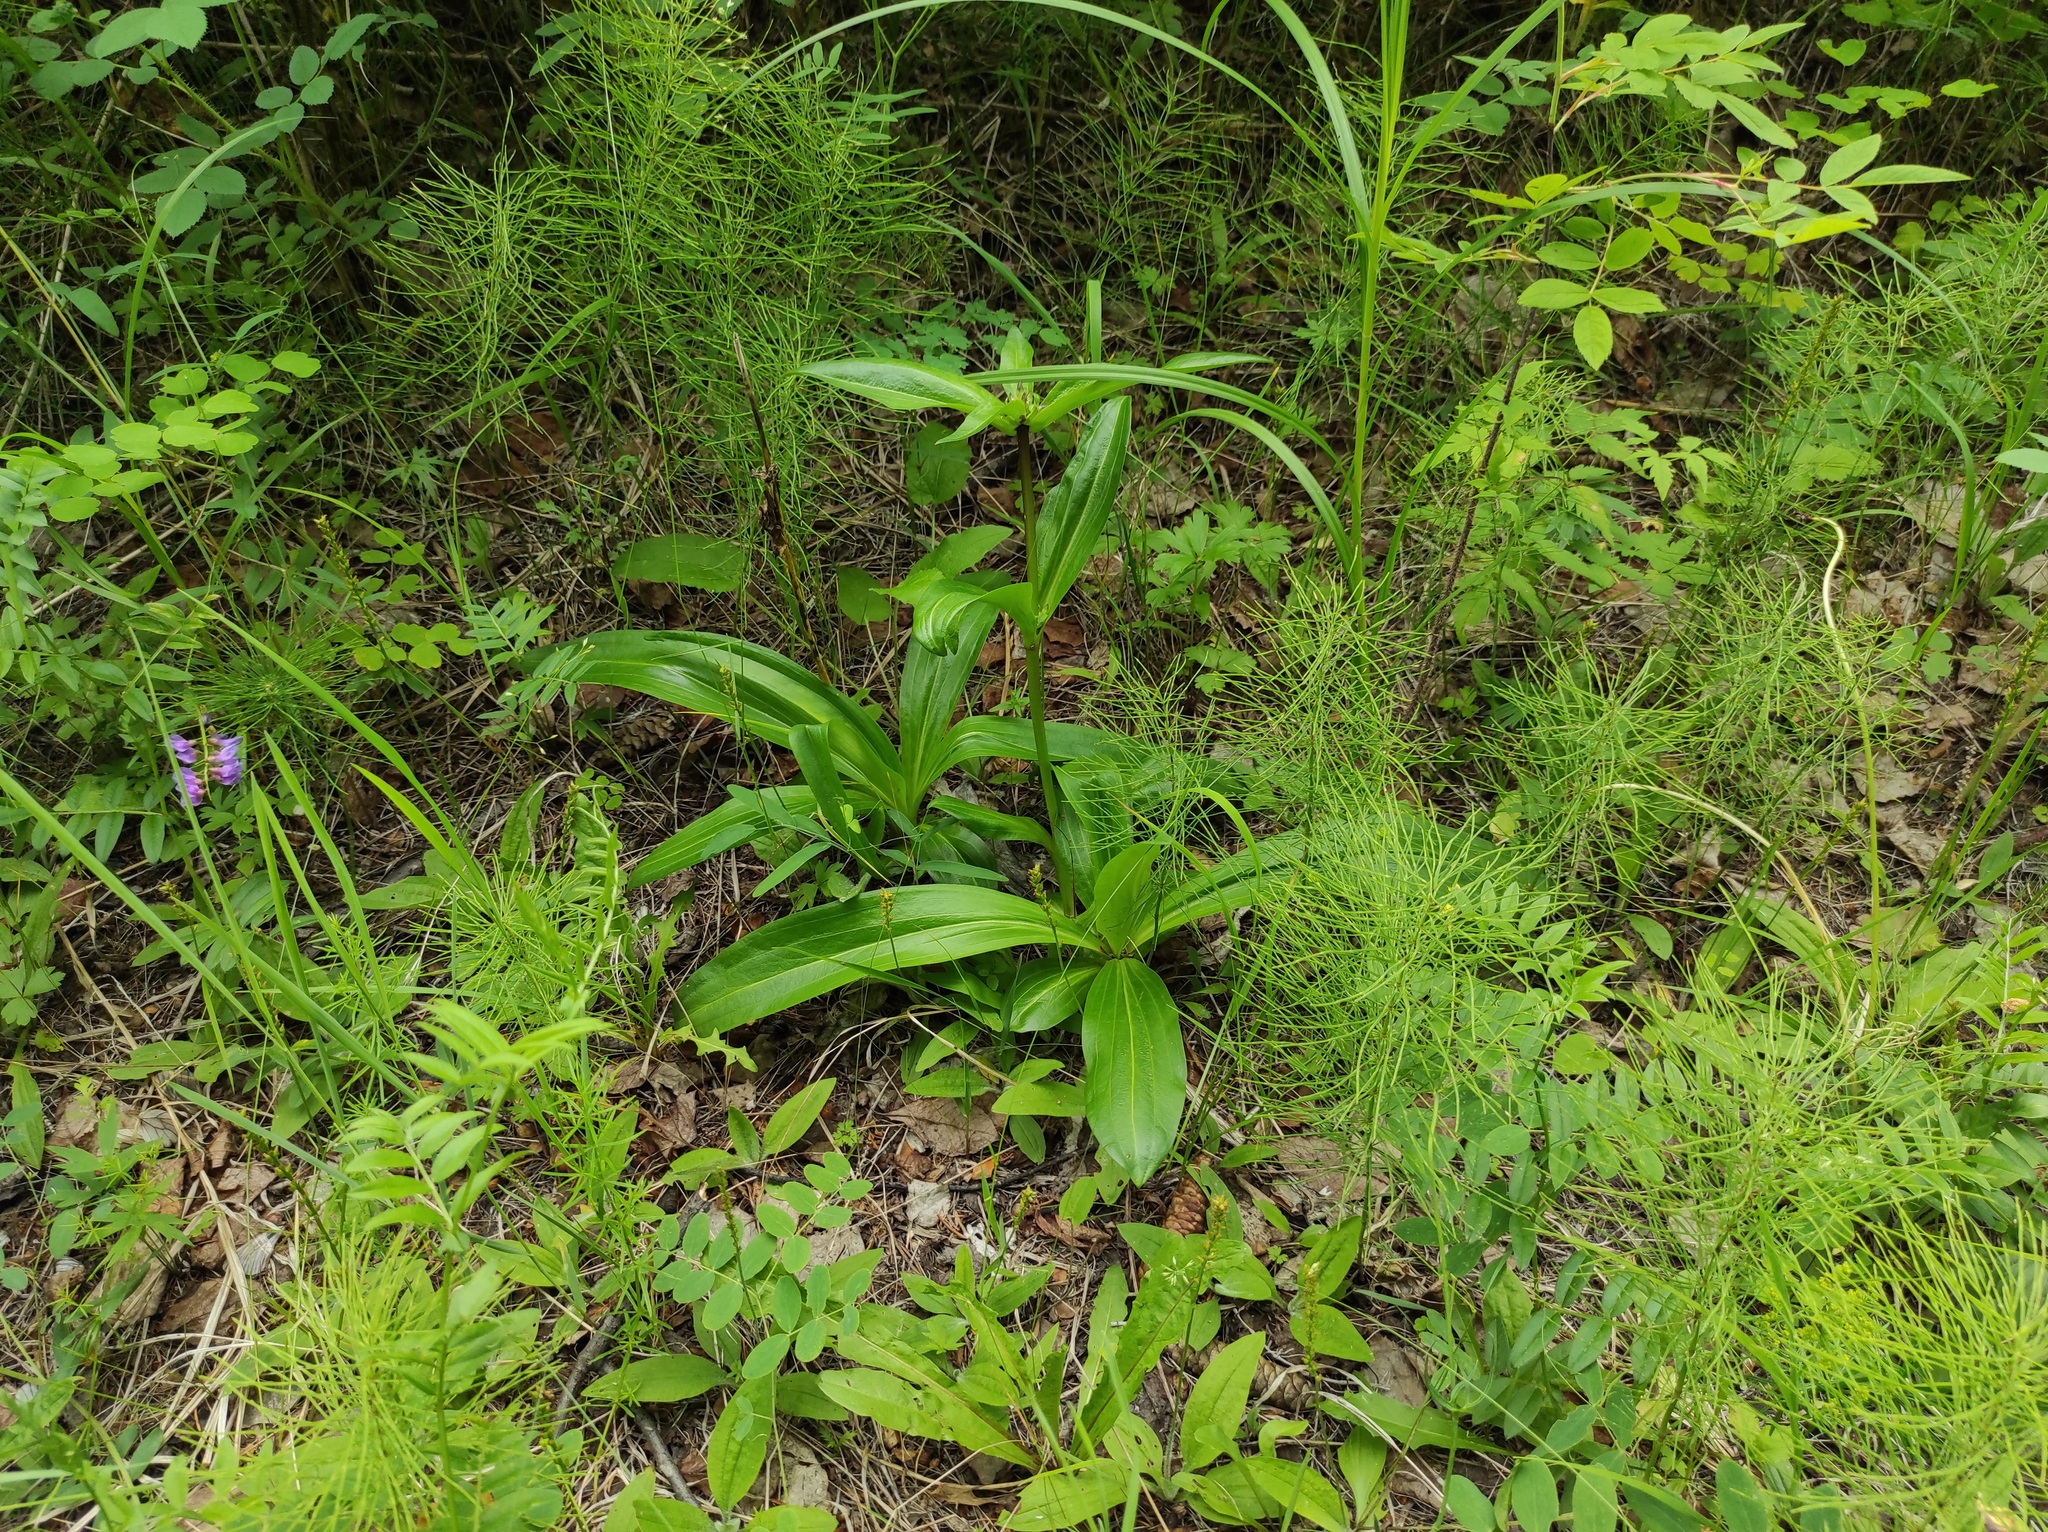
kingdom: Plantae
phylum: Tracheophyta
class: Magnoliopsida
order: Gentianales
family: Gentianaceae
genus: Gentiana
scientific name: Gentiana macrophylla
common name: Large-leaf gentian
